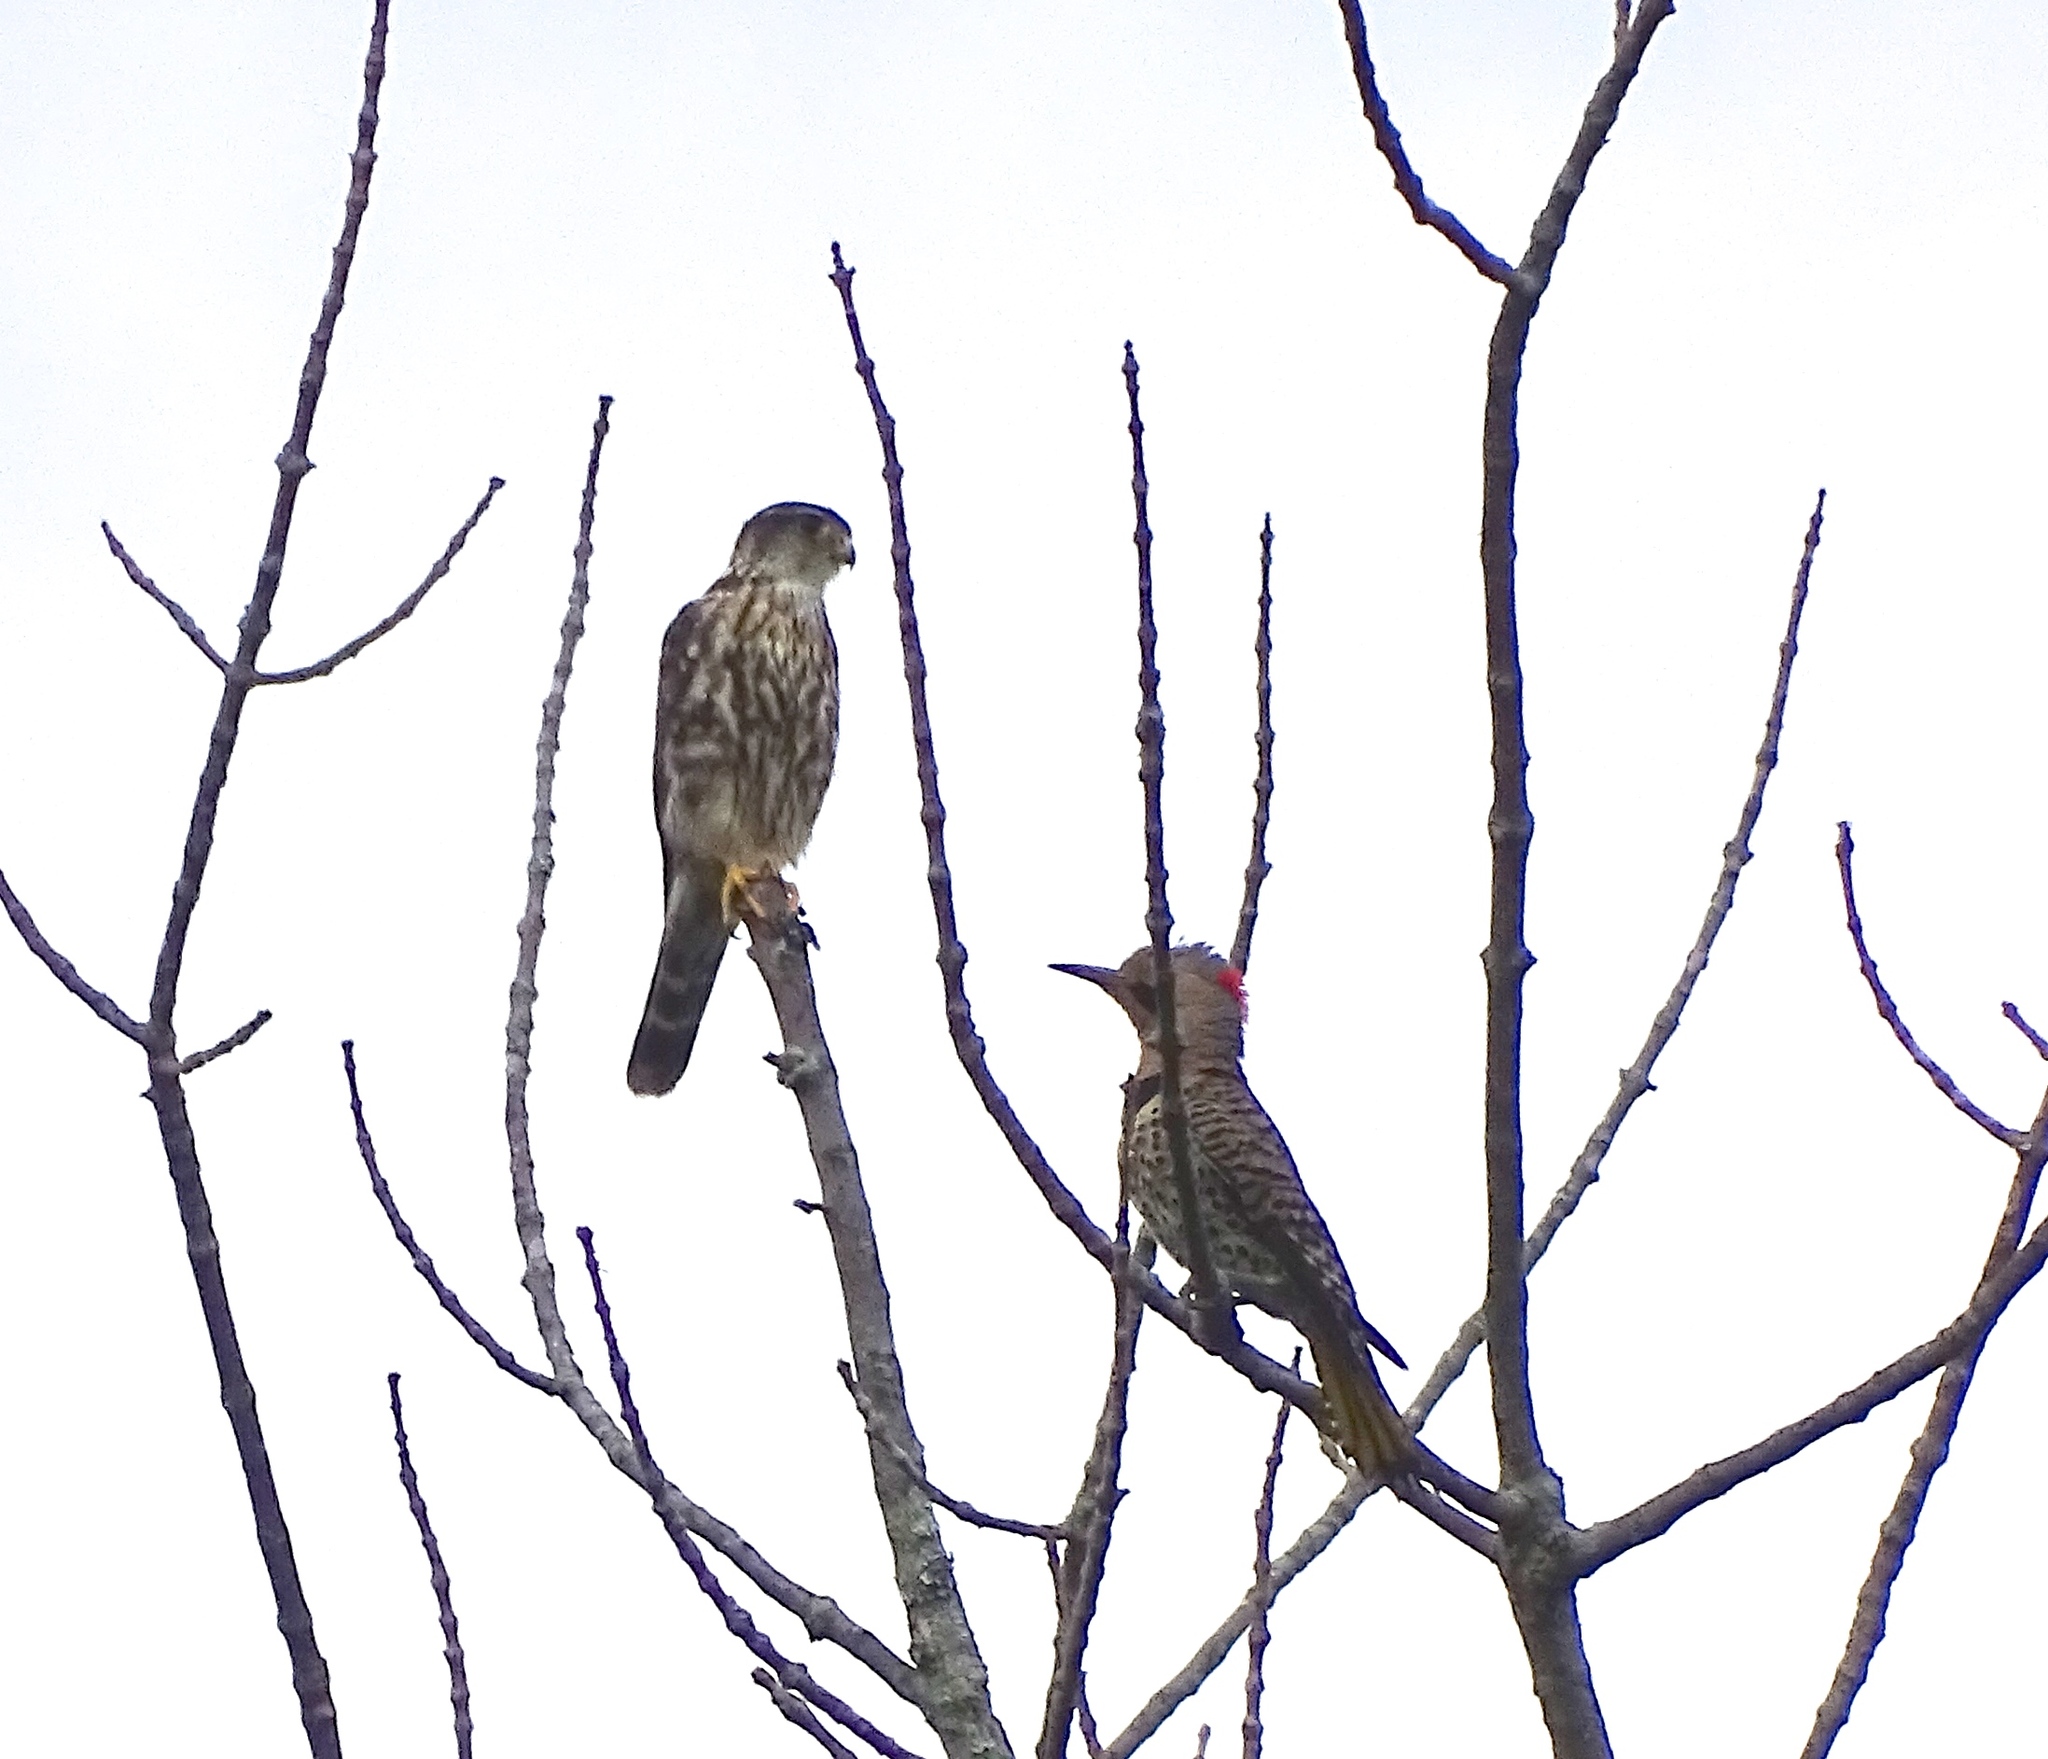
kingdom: Animalia
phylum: Chordata
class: Aves
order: Falconiformes
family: Falconidae
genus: Falco
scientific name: Falco columbarius
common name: Merlin
